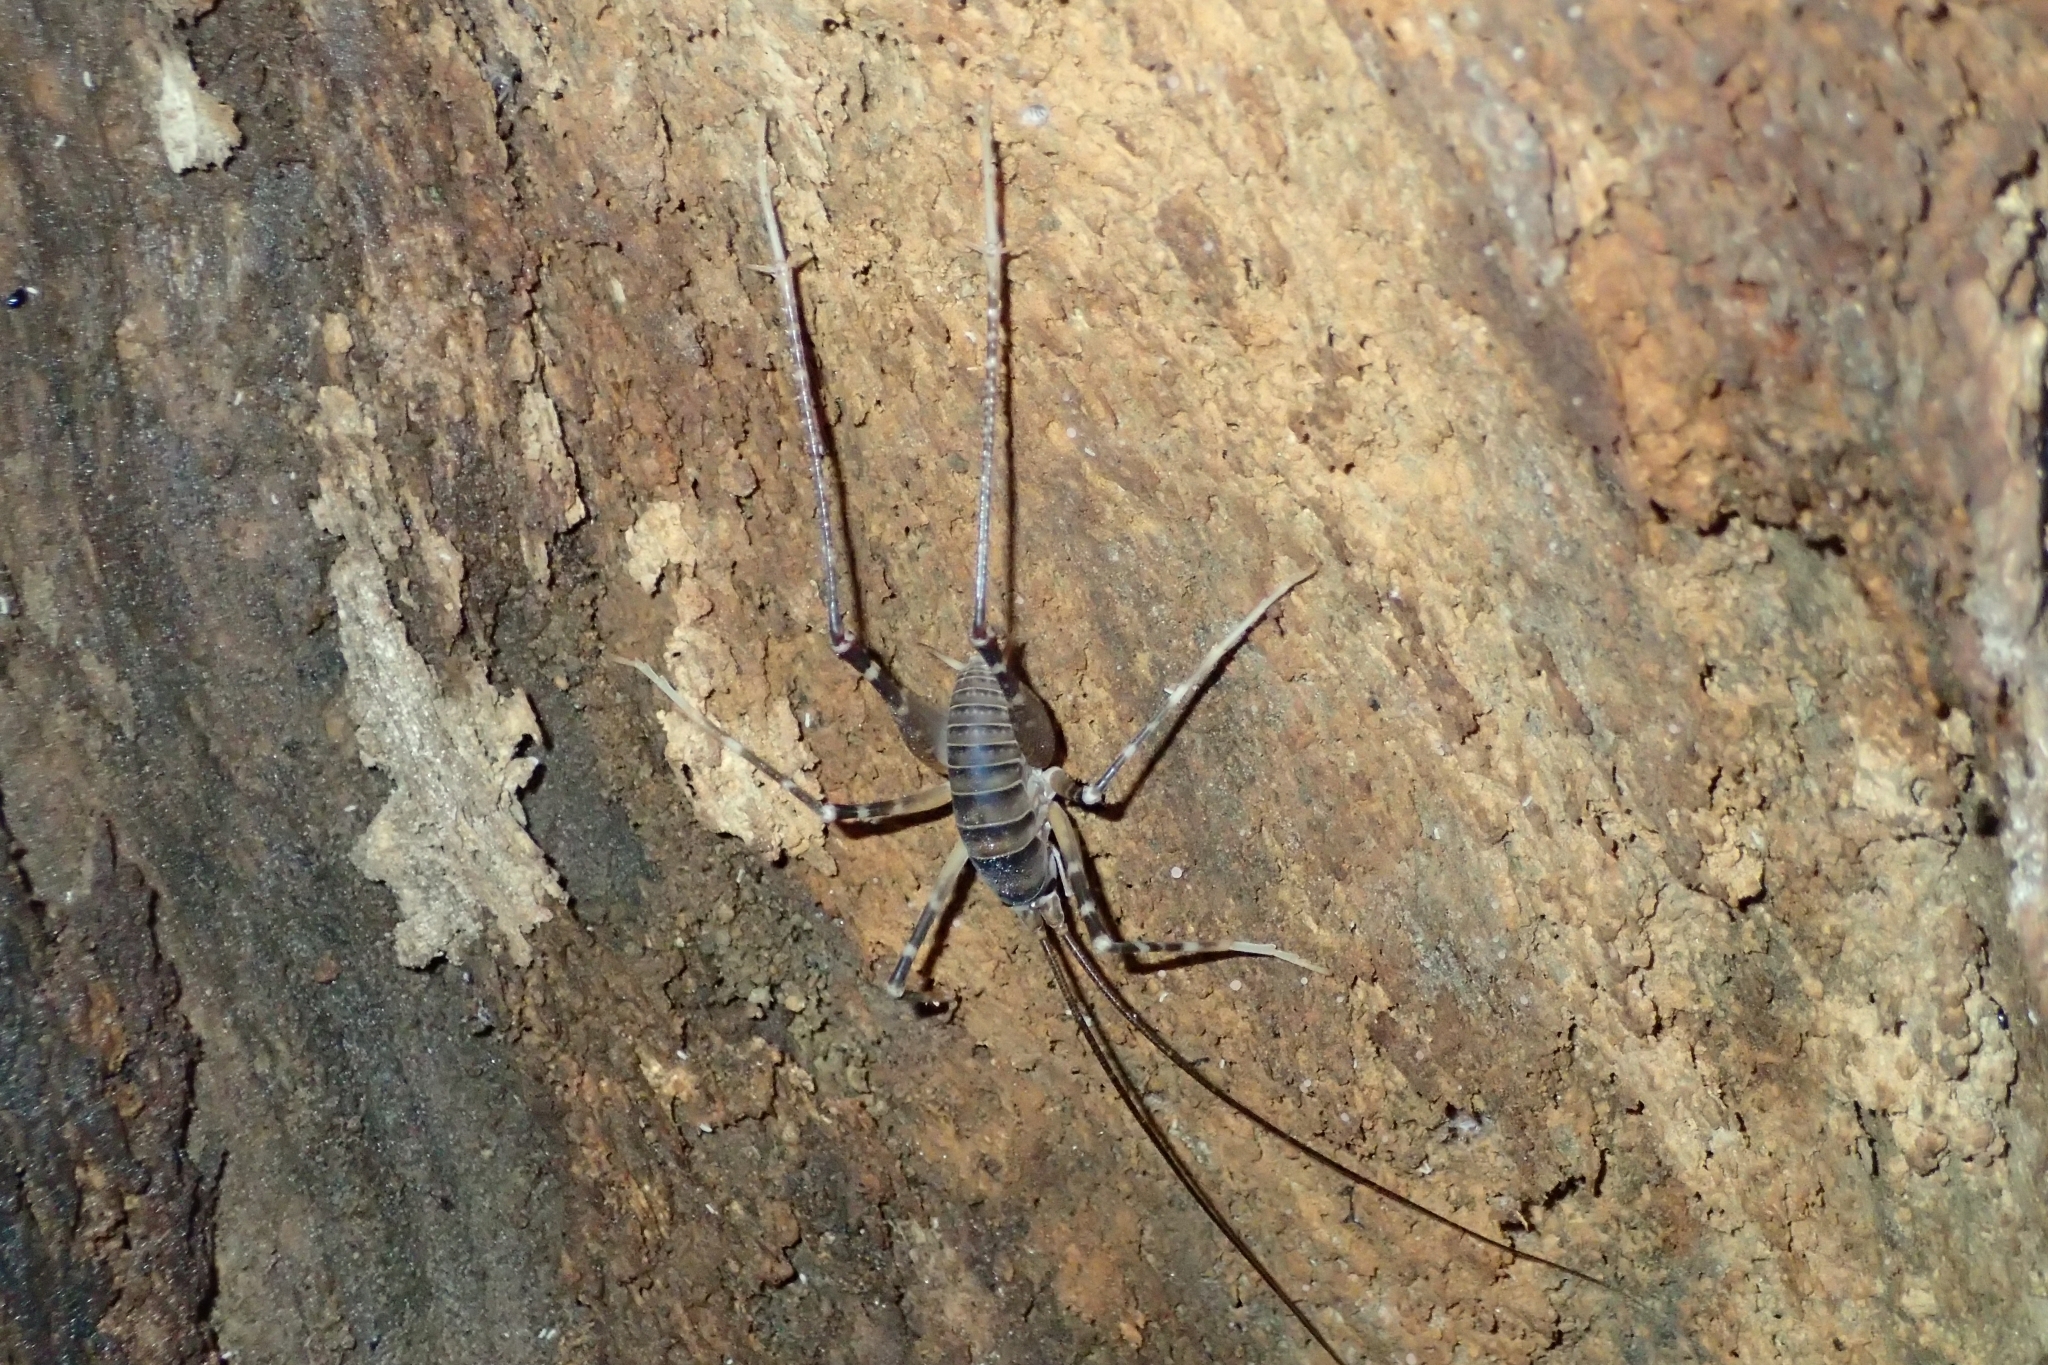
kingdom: Animalia
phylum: Arthropoda
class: Insecta
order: Orthoptera
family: Rhaphidophoridae
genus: Pachyrhamma
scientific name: Pachyrhamma edwardsii
